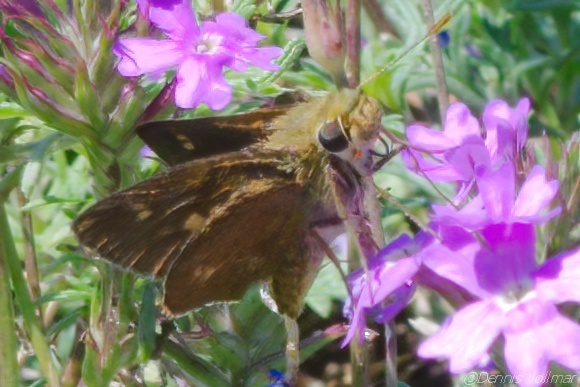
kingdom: Animalia
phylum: Arthropoda
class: Insecta
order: Lepidoptera
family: Hesperiidae
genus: Polites
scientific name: Polites egeremet
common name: Northern broken-dash
